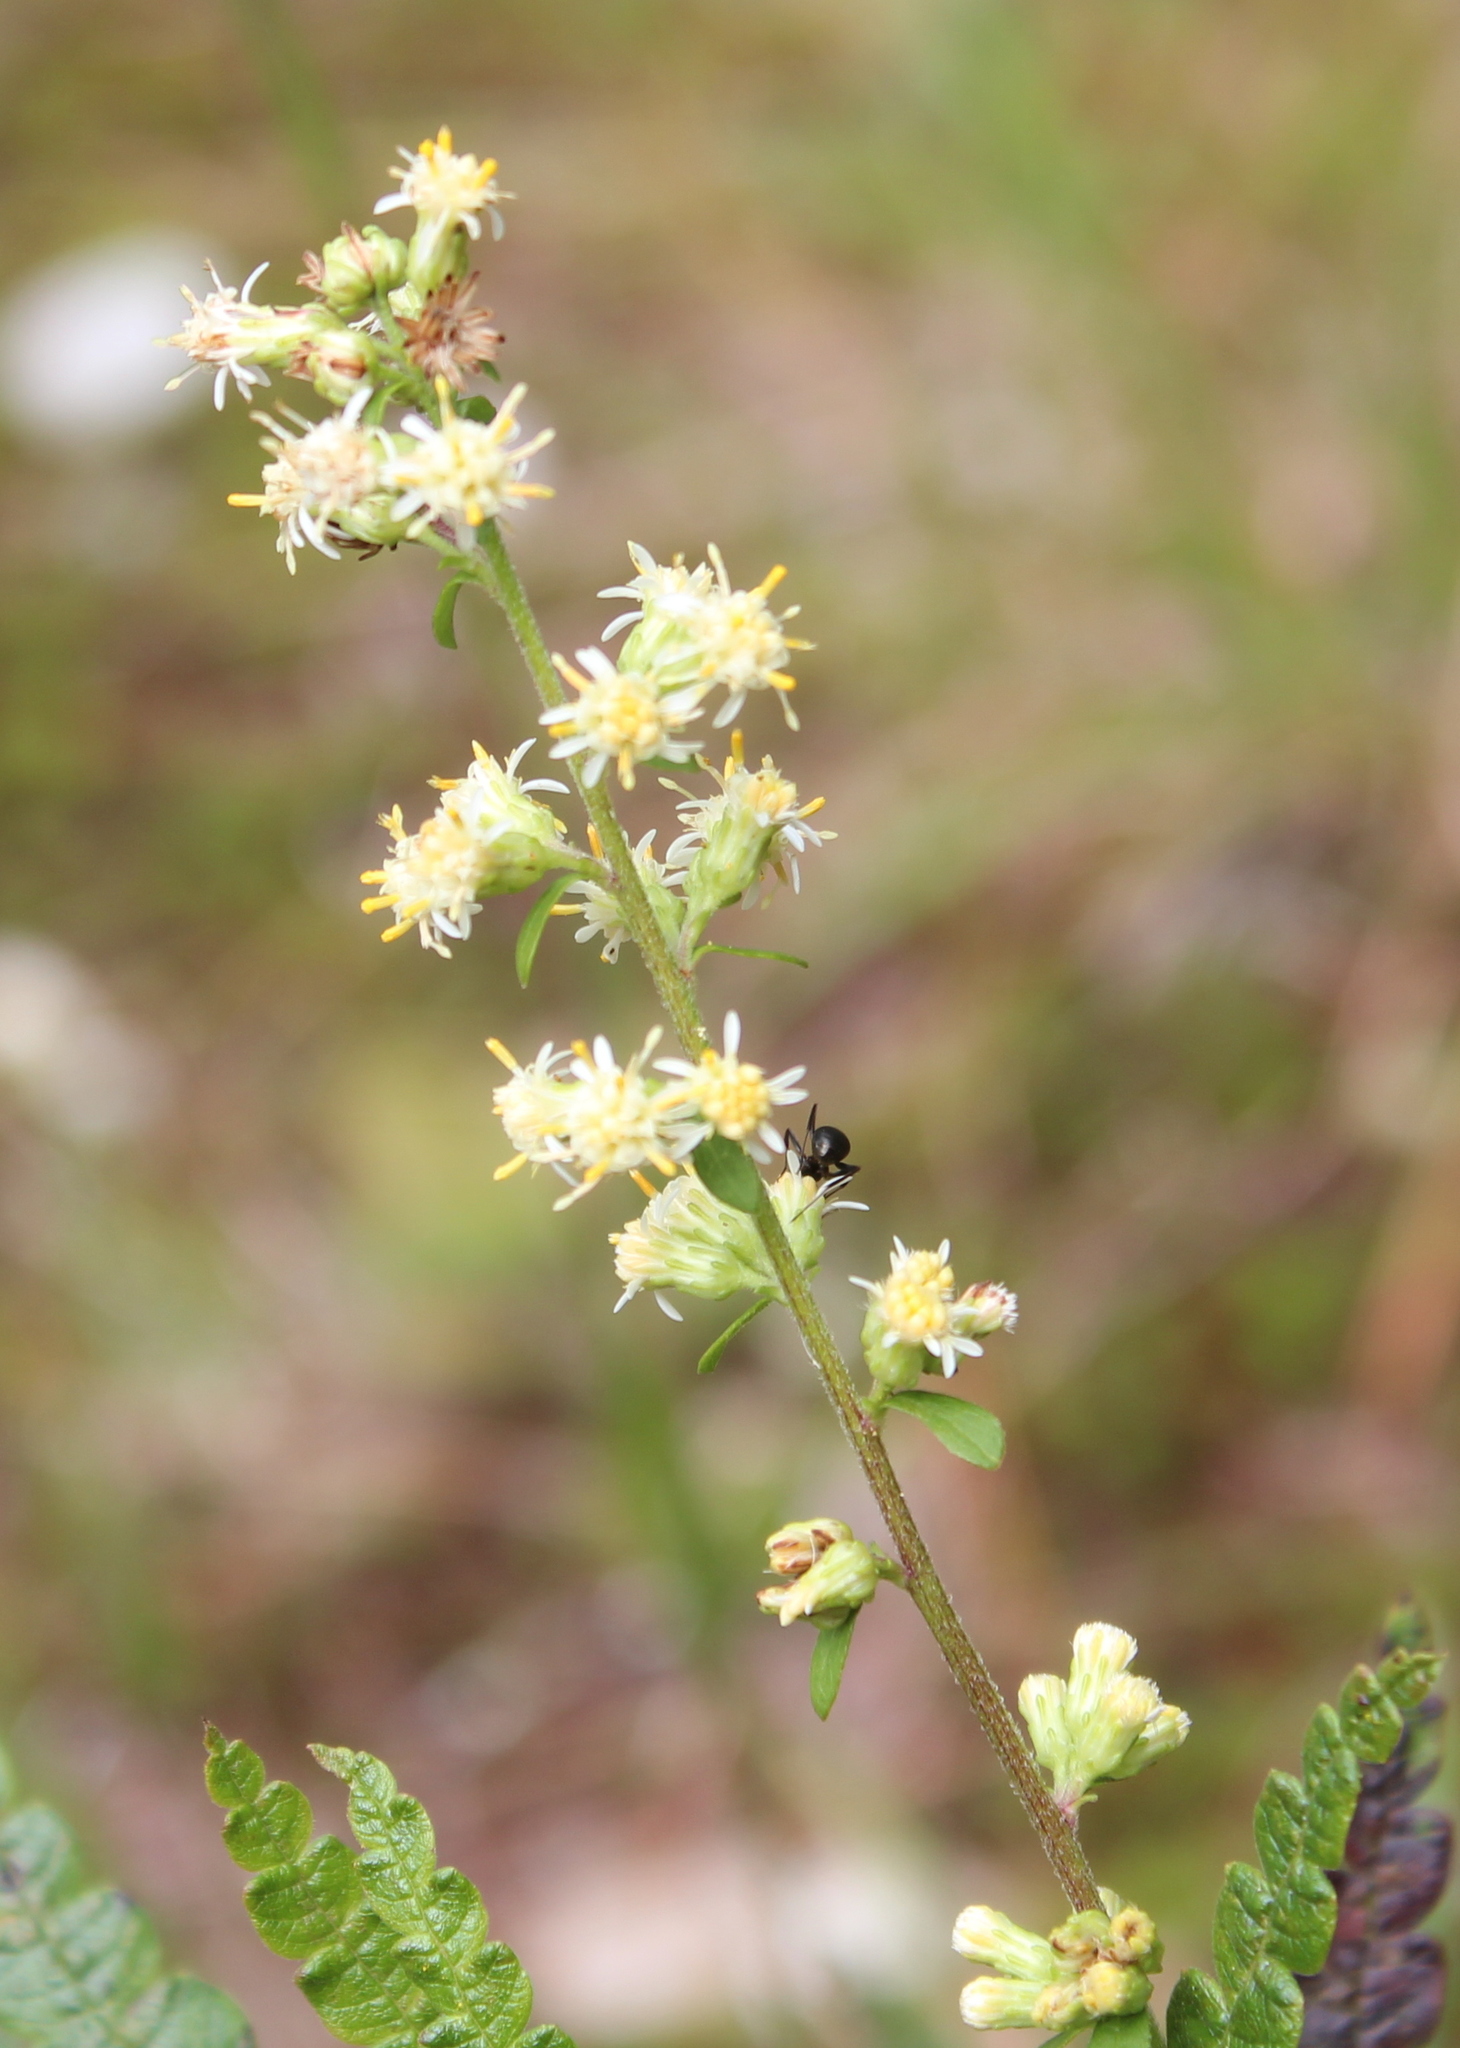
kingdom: Plantae
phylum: Tracheophyta
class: Magnoliopsida
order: Asterales
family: Asteraceae
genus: Solidago
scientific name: Solidago bicolor
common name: Silverrod
